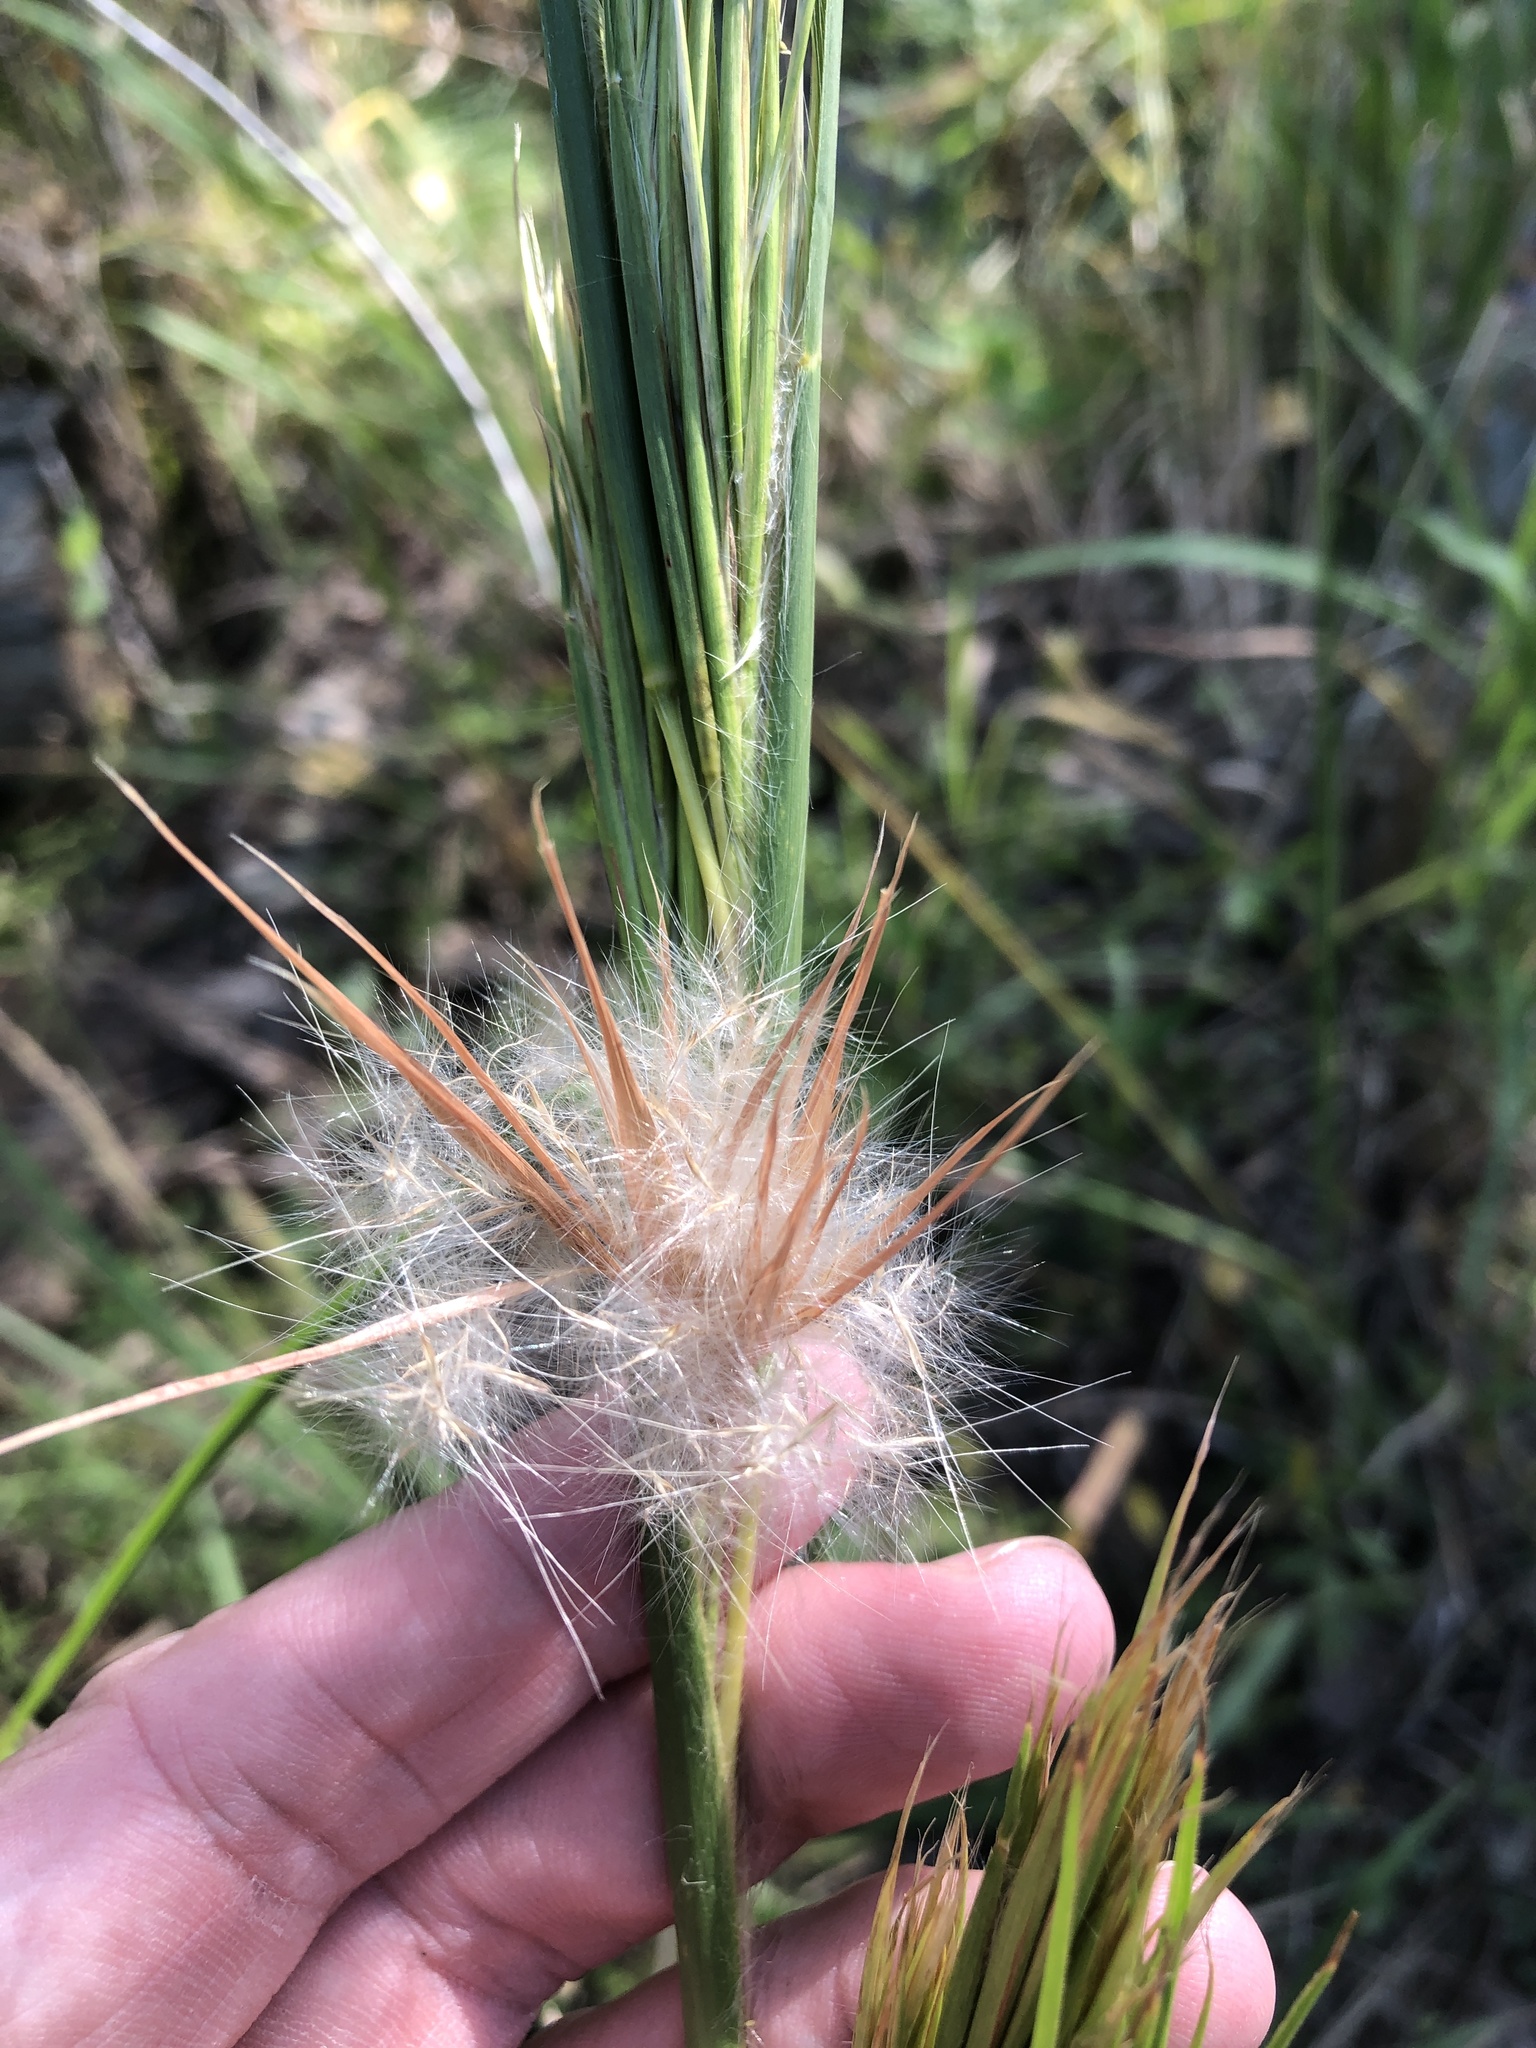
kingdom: Plantae
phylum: Tracheophyta
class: Liliopsida
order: Poales
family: Poaceae
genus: Andropogon
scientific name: Andropogon tenuispatheus
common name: Bushy bluestem
